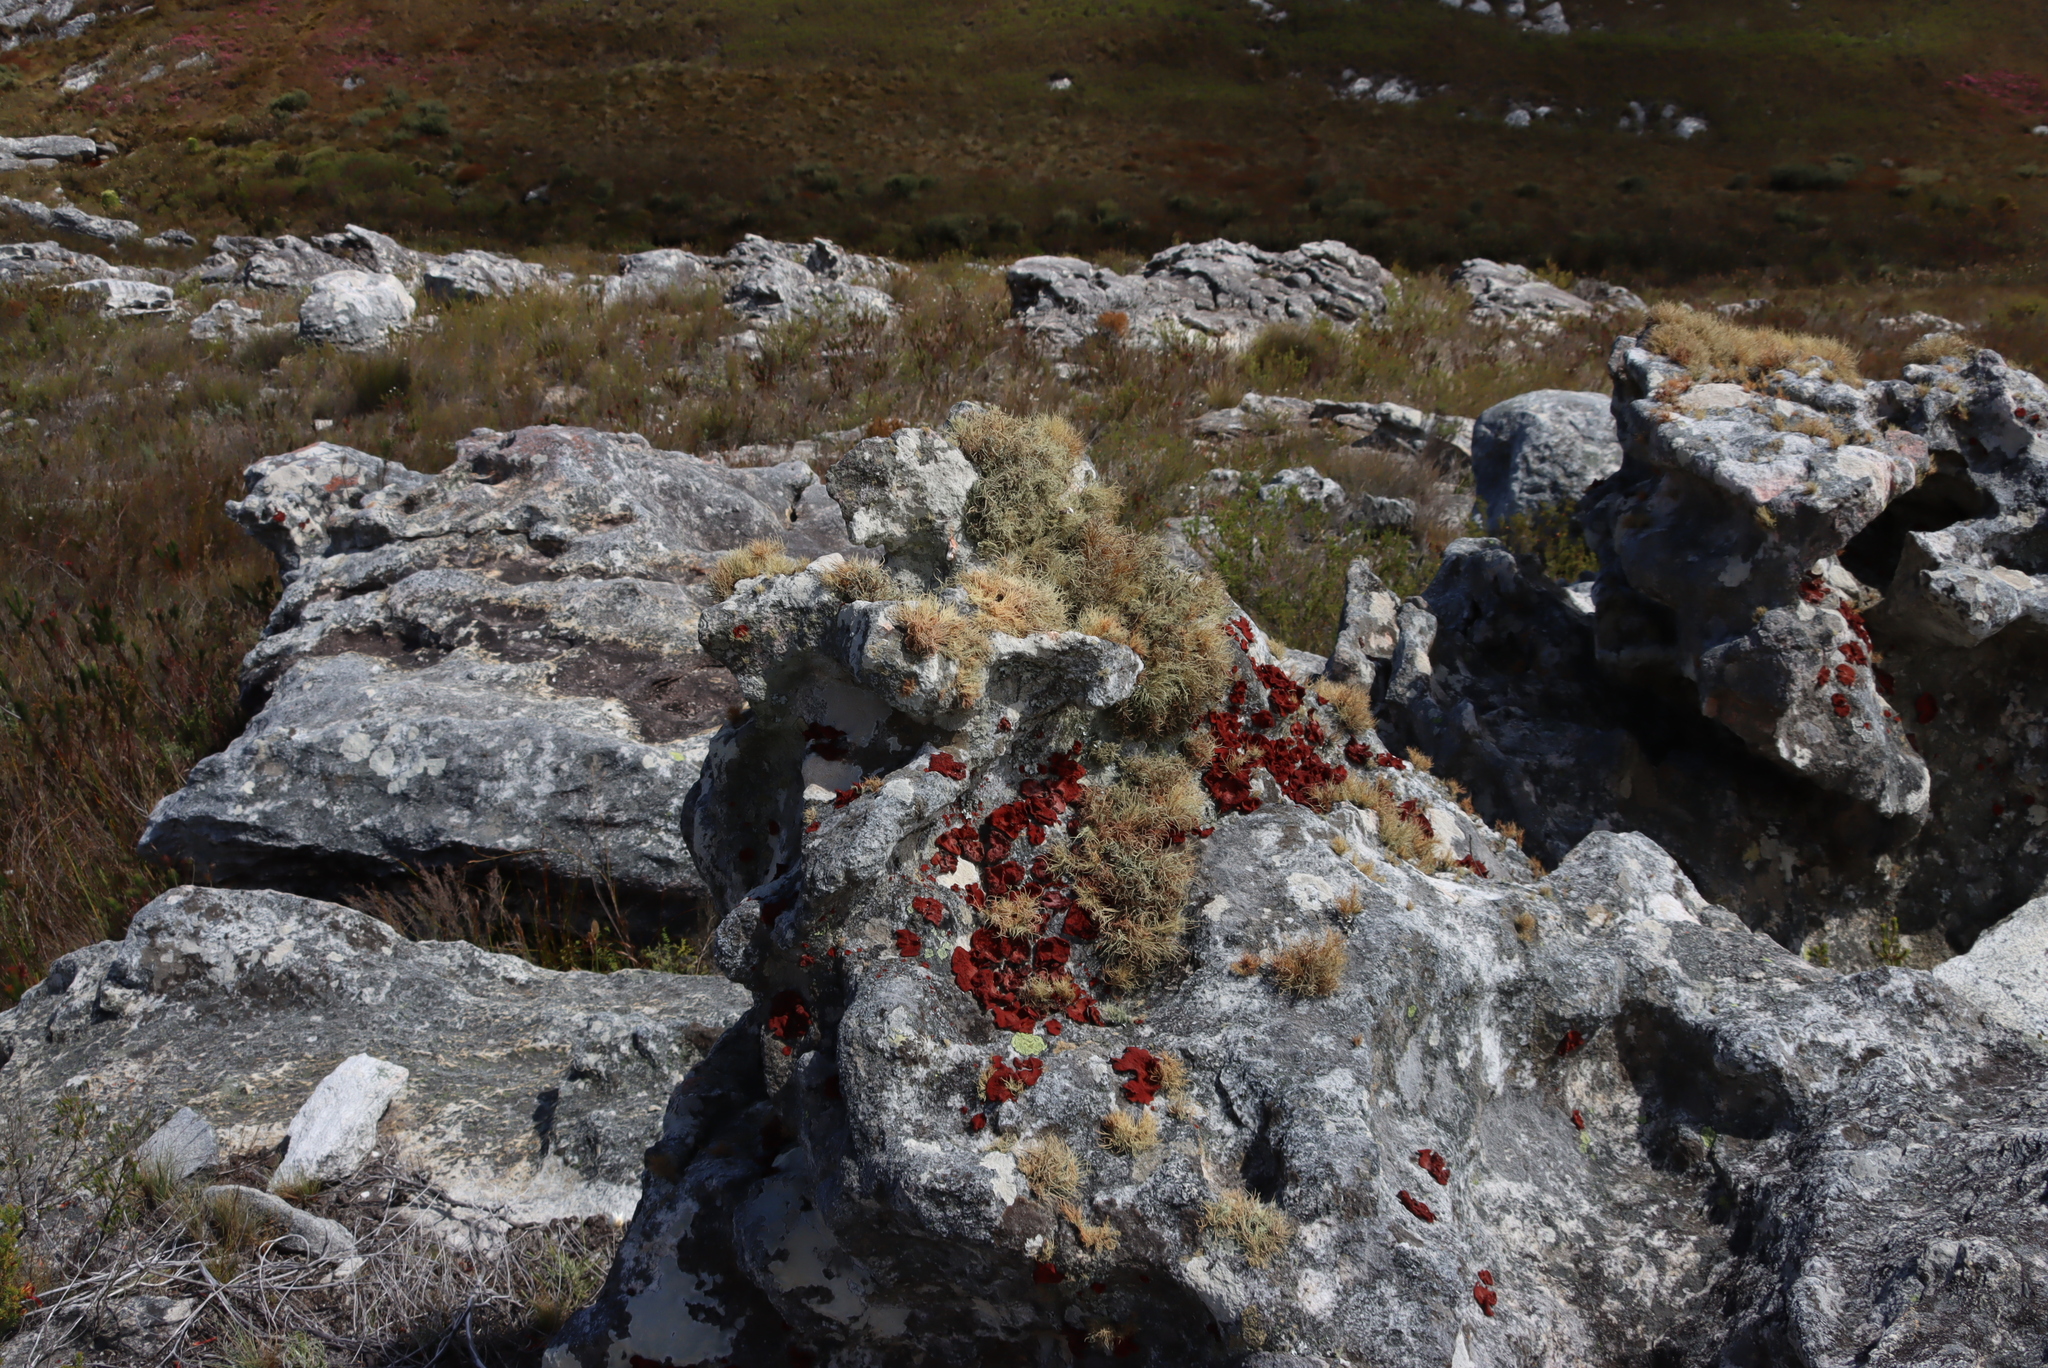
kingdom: Fungi
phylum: Ascomycota
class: Lecanoromycetes
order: Umbilicariales
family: Umbilicariaceae
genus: Lasallia
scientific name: Lasallia rubiginosa
